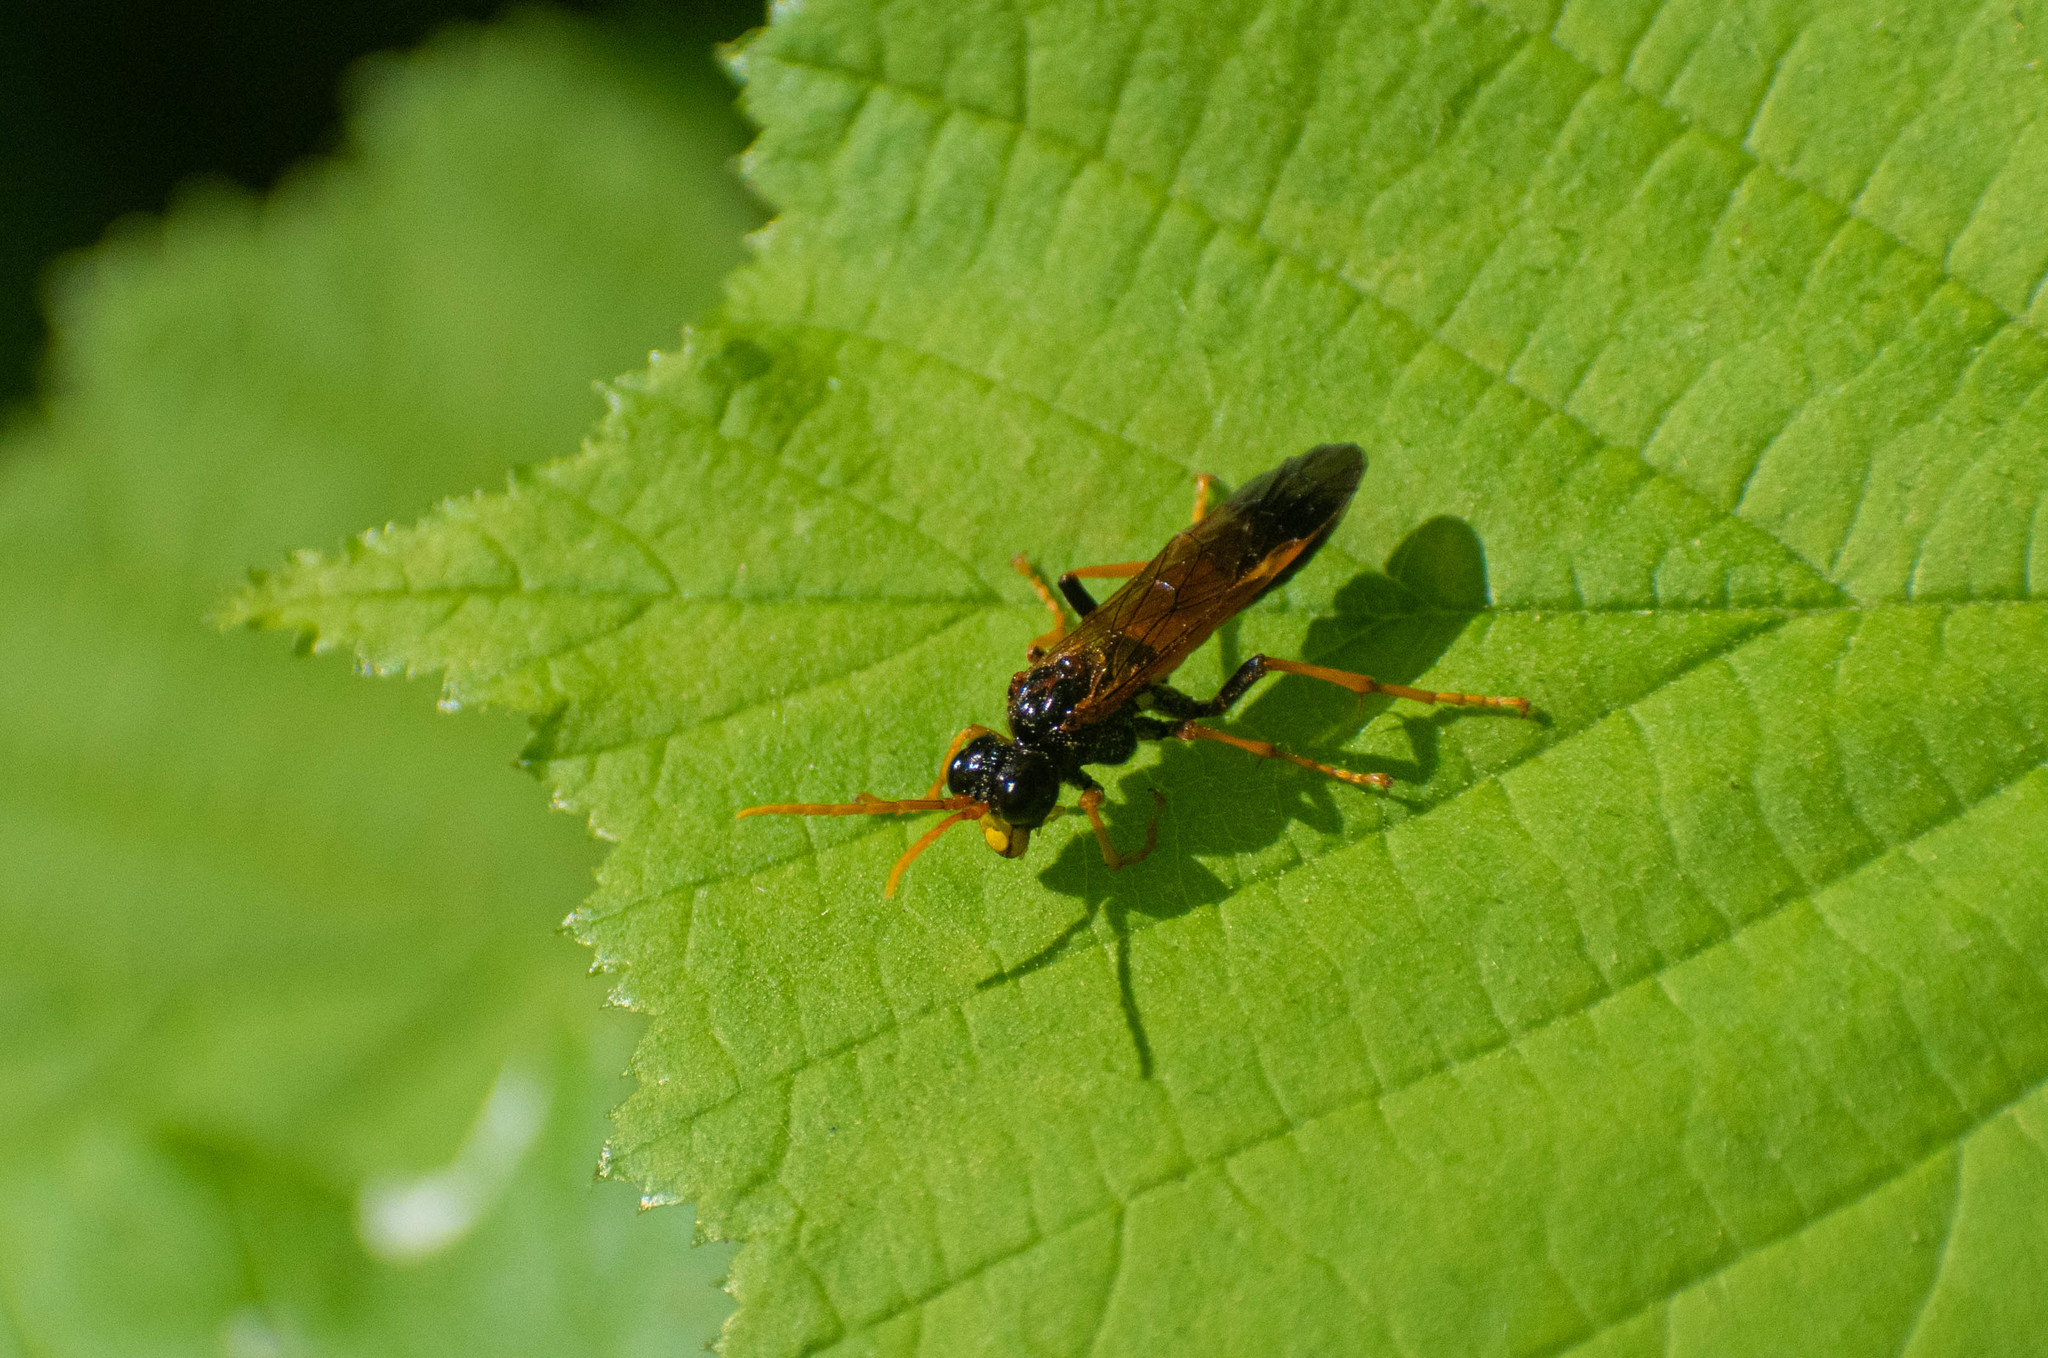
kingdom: Animalia
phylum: Arthropoda
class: Insecta
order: Hymenoptera
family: Tenthredinidae
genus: Tenthredo
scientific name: Tenthredo campestris
